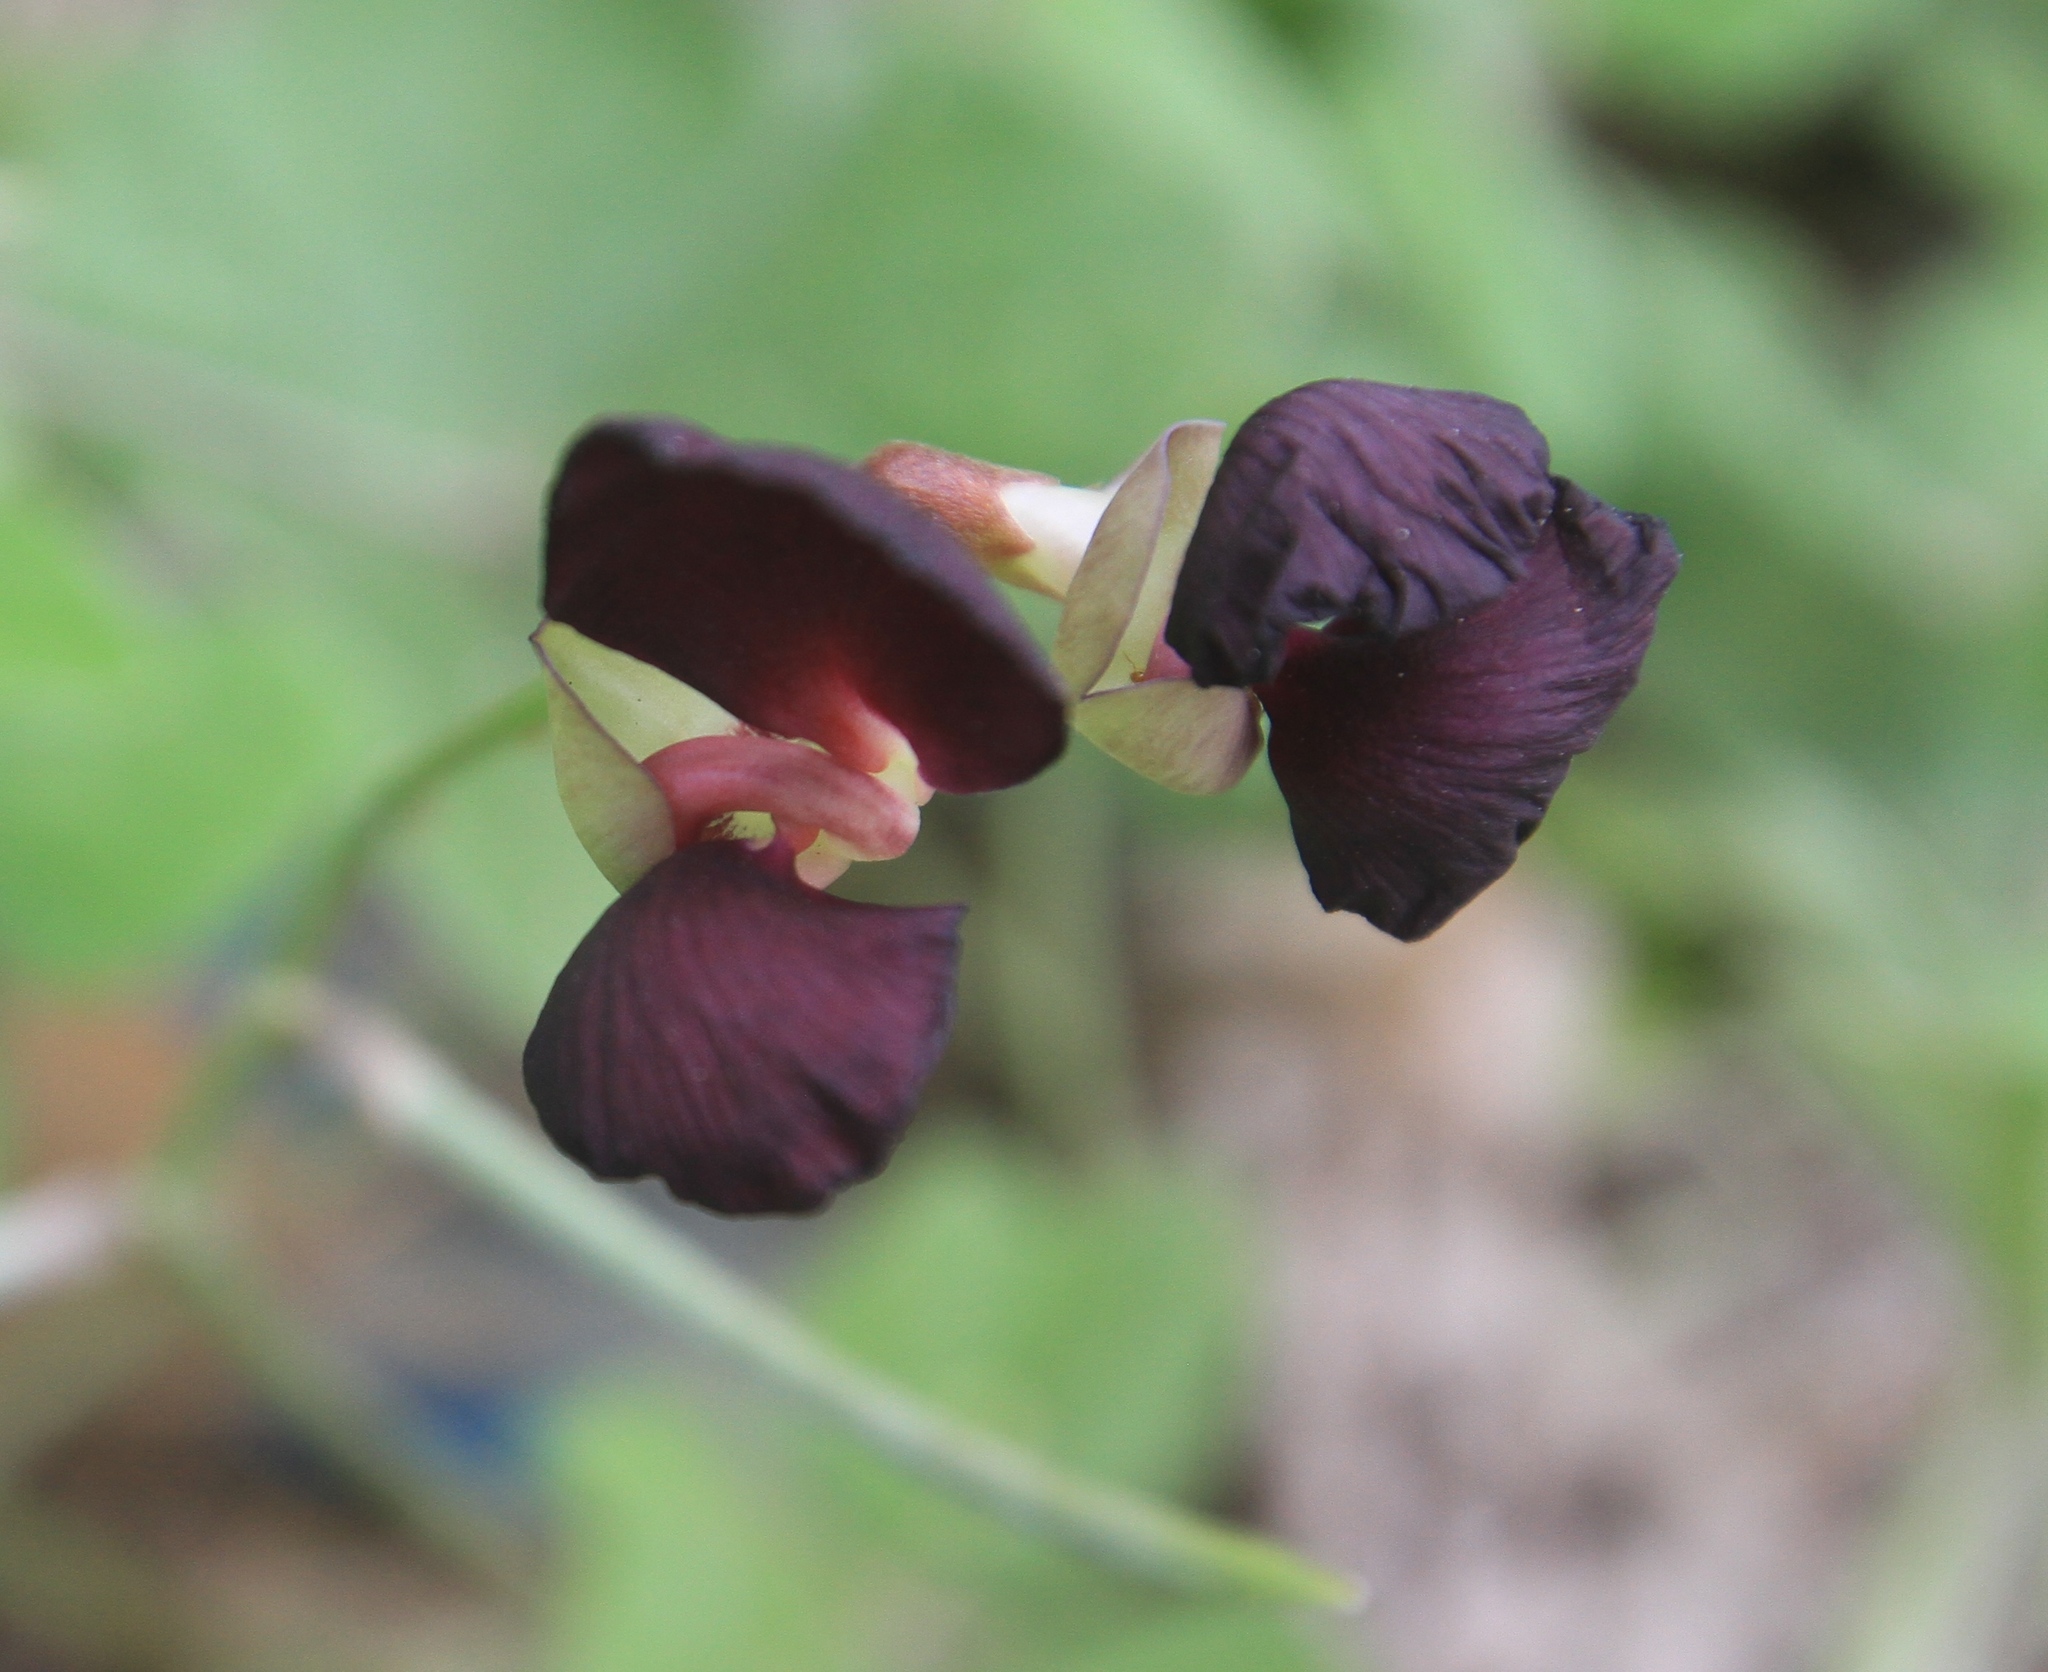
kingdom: Plantae
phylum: Tracheophyta
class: Magnoliopsida
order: Fabales
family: Fabaceae
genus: Macroptilium
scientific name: Macroptilium atropurpureum
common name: Purple bushbean
